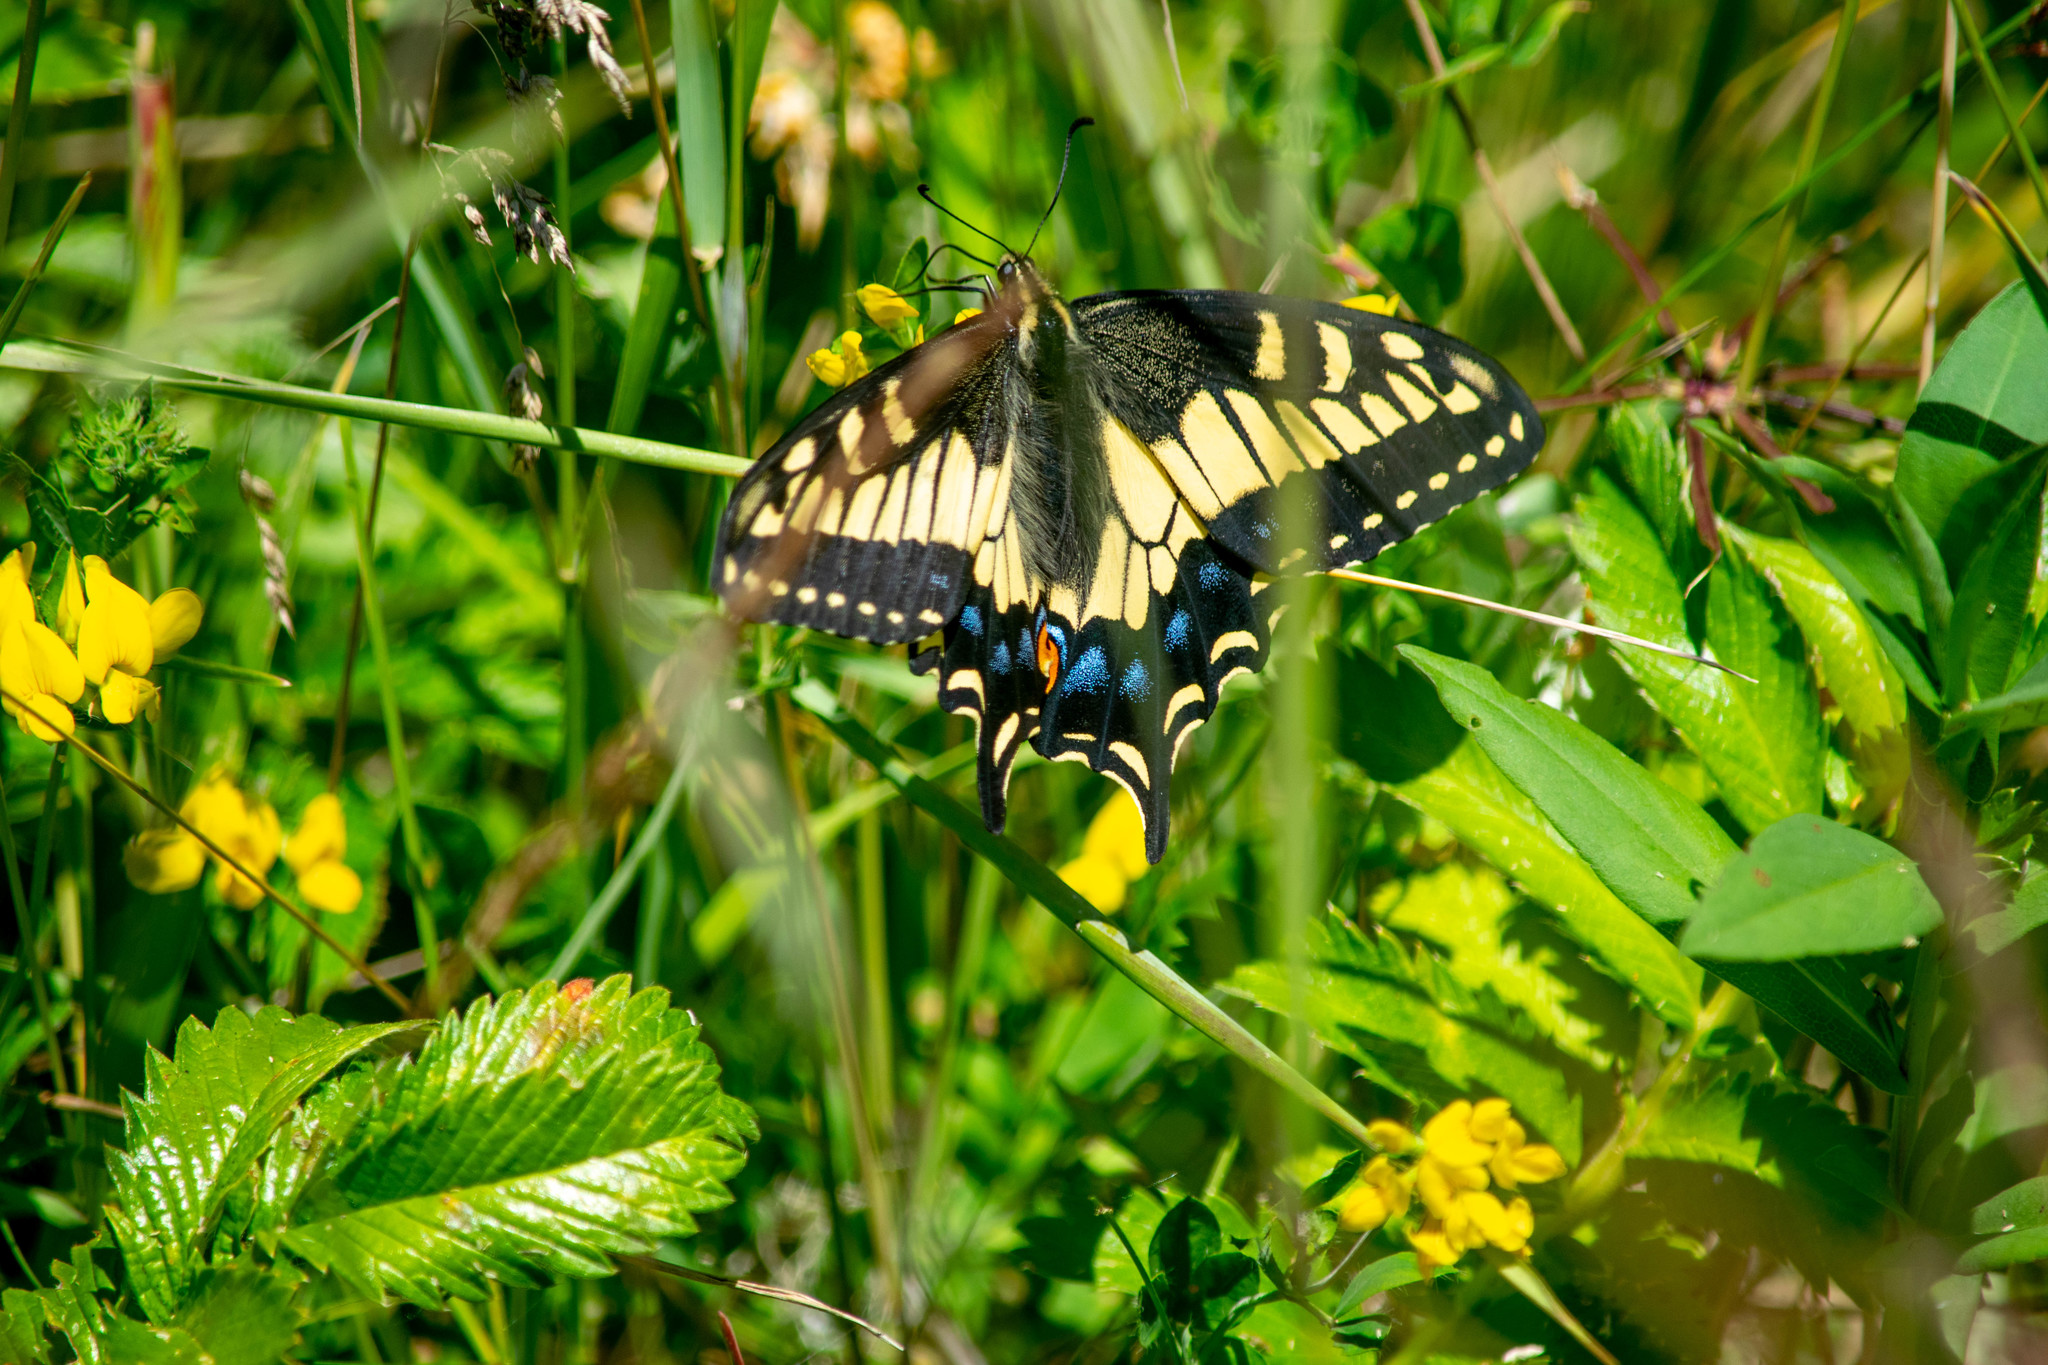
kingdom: Animalia
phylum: Arthropoda
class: Insecta
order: Lepidoptera
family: Papilionidae
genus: Papilio
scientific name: Papilio zelicaon
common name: Anise swallowtail
